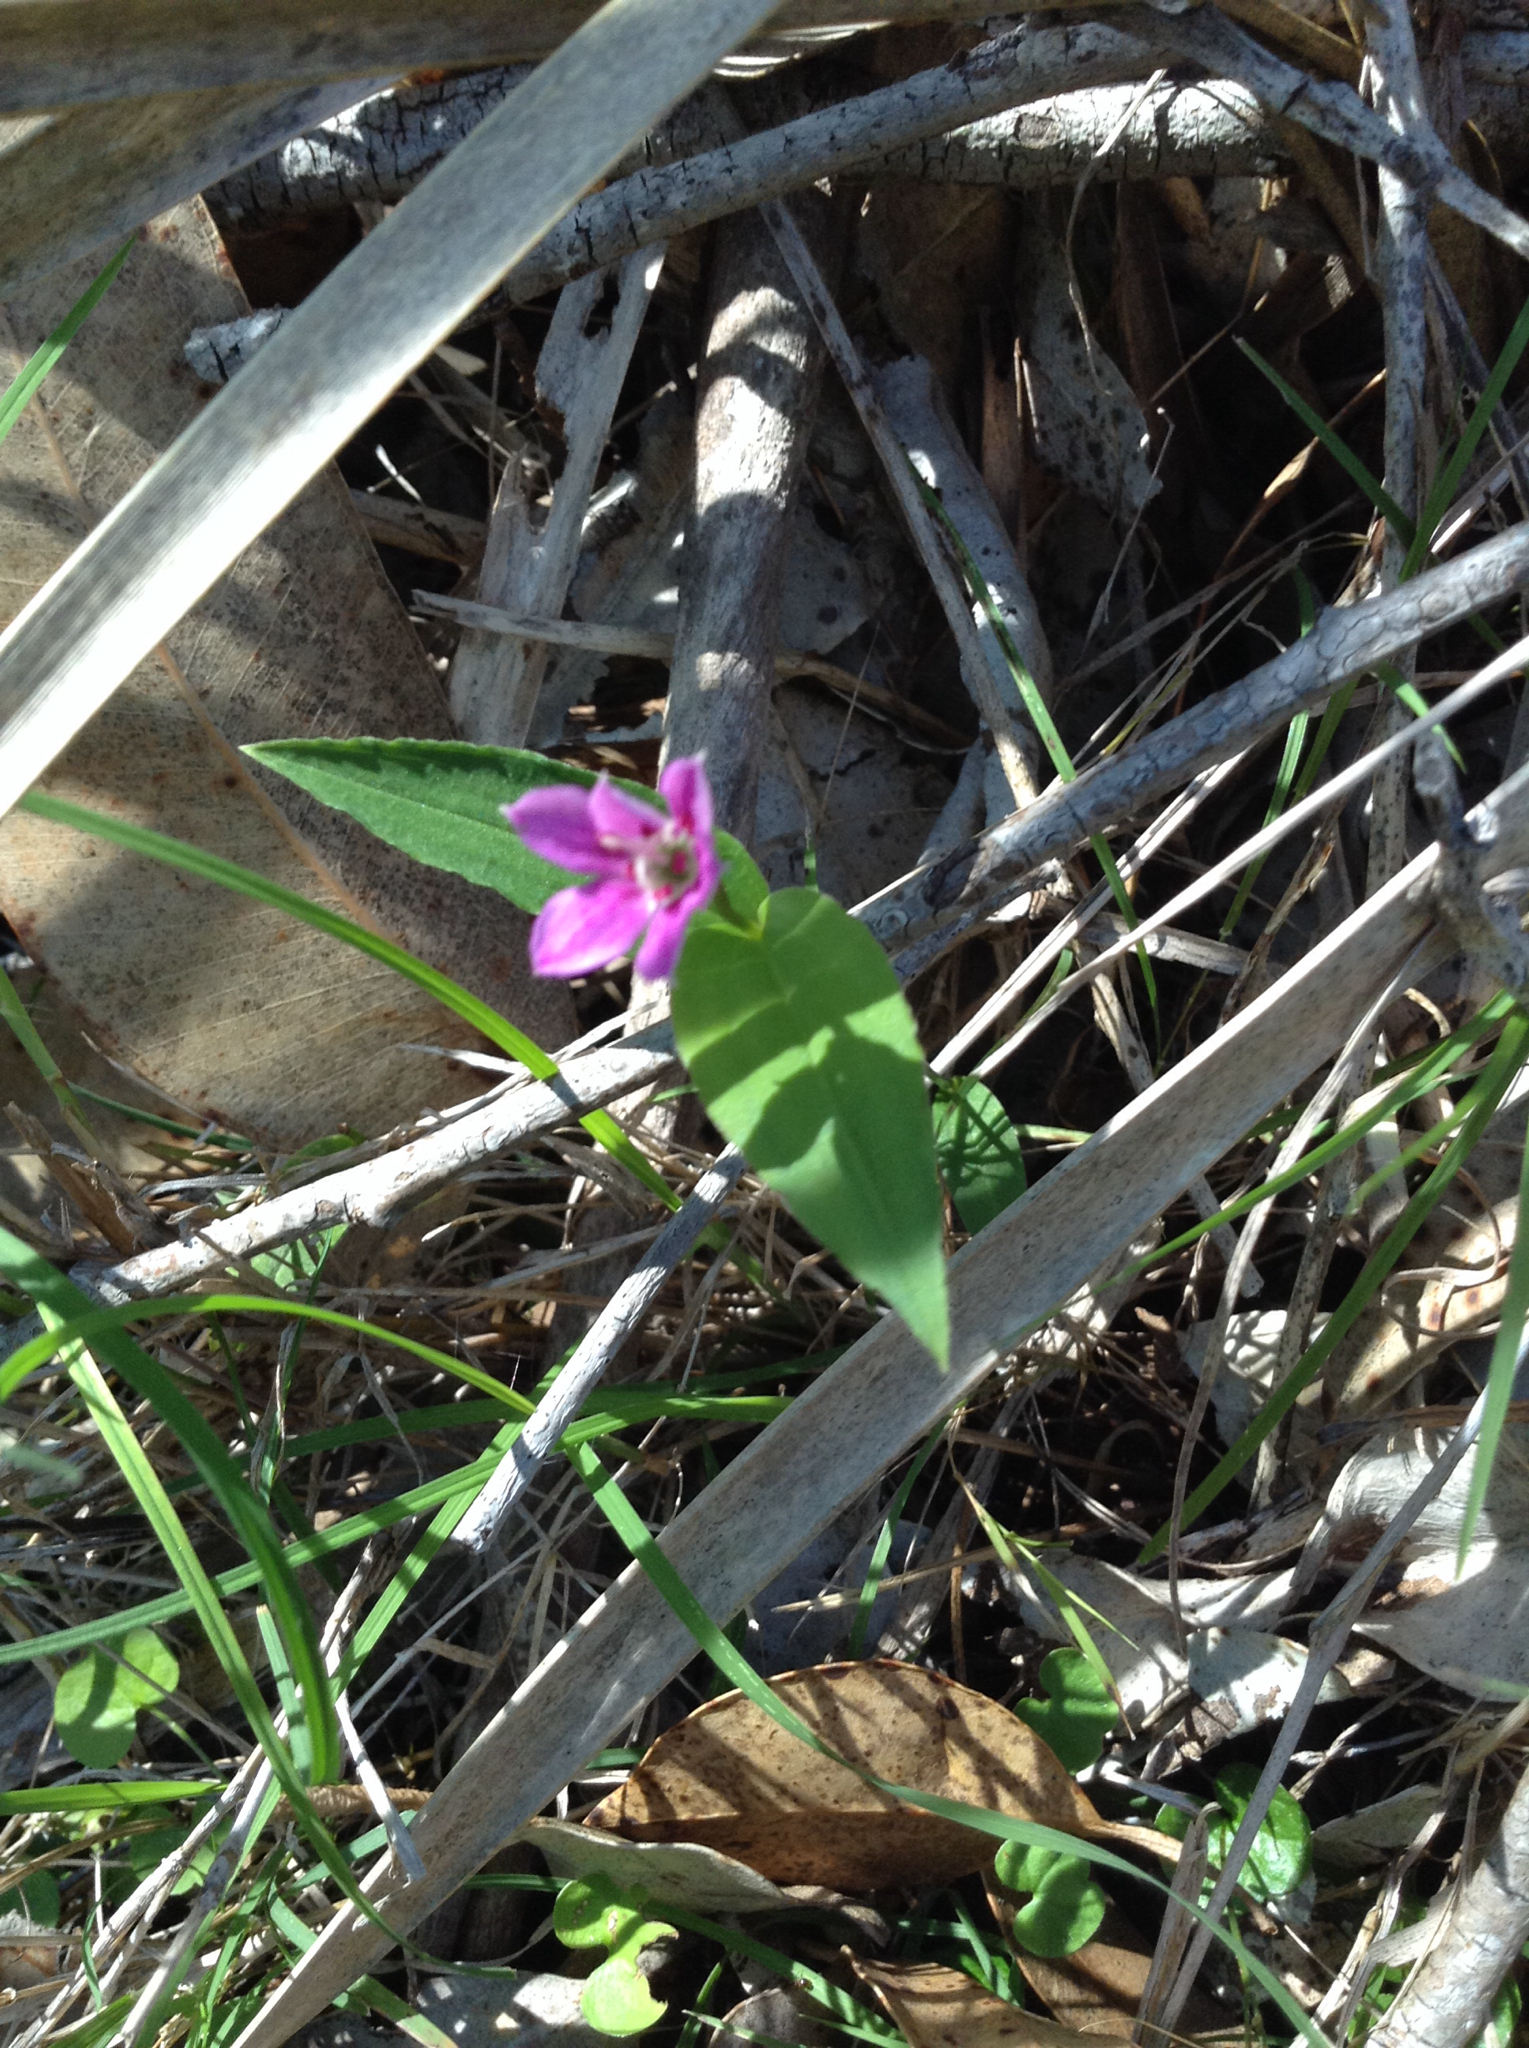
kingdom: Plantae
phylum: Tracheophyta
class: Liliopsida
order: Liliales
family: Colchicaceae
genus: Schelhammera
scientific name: Schelhammera undulata
